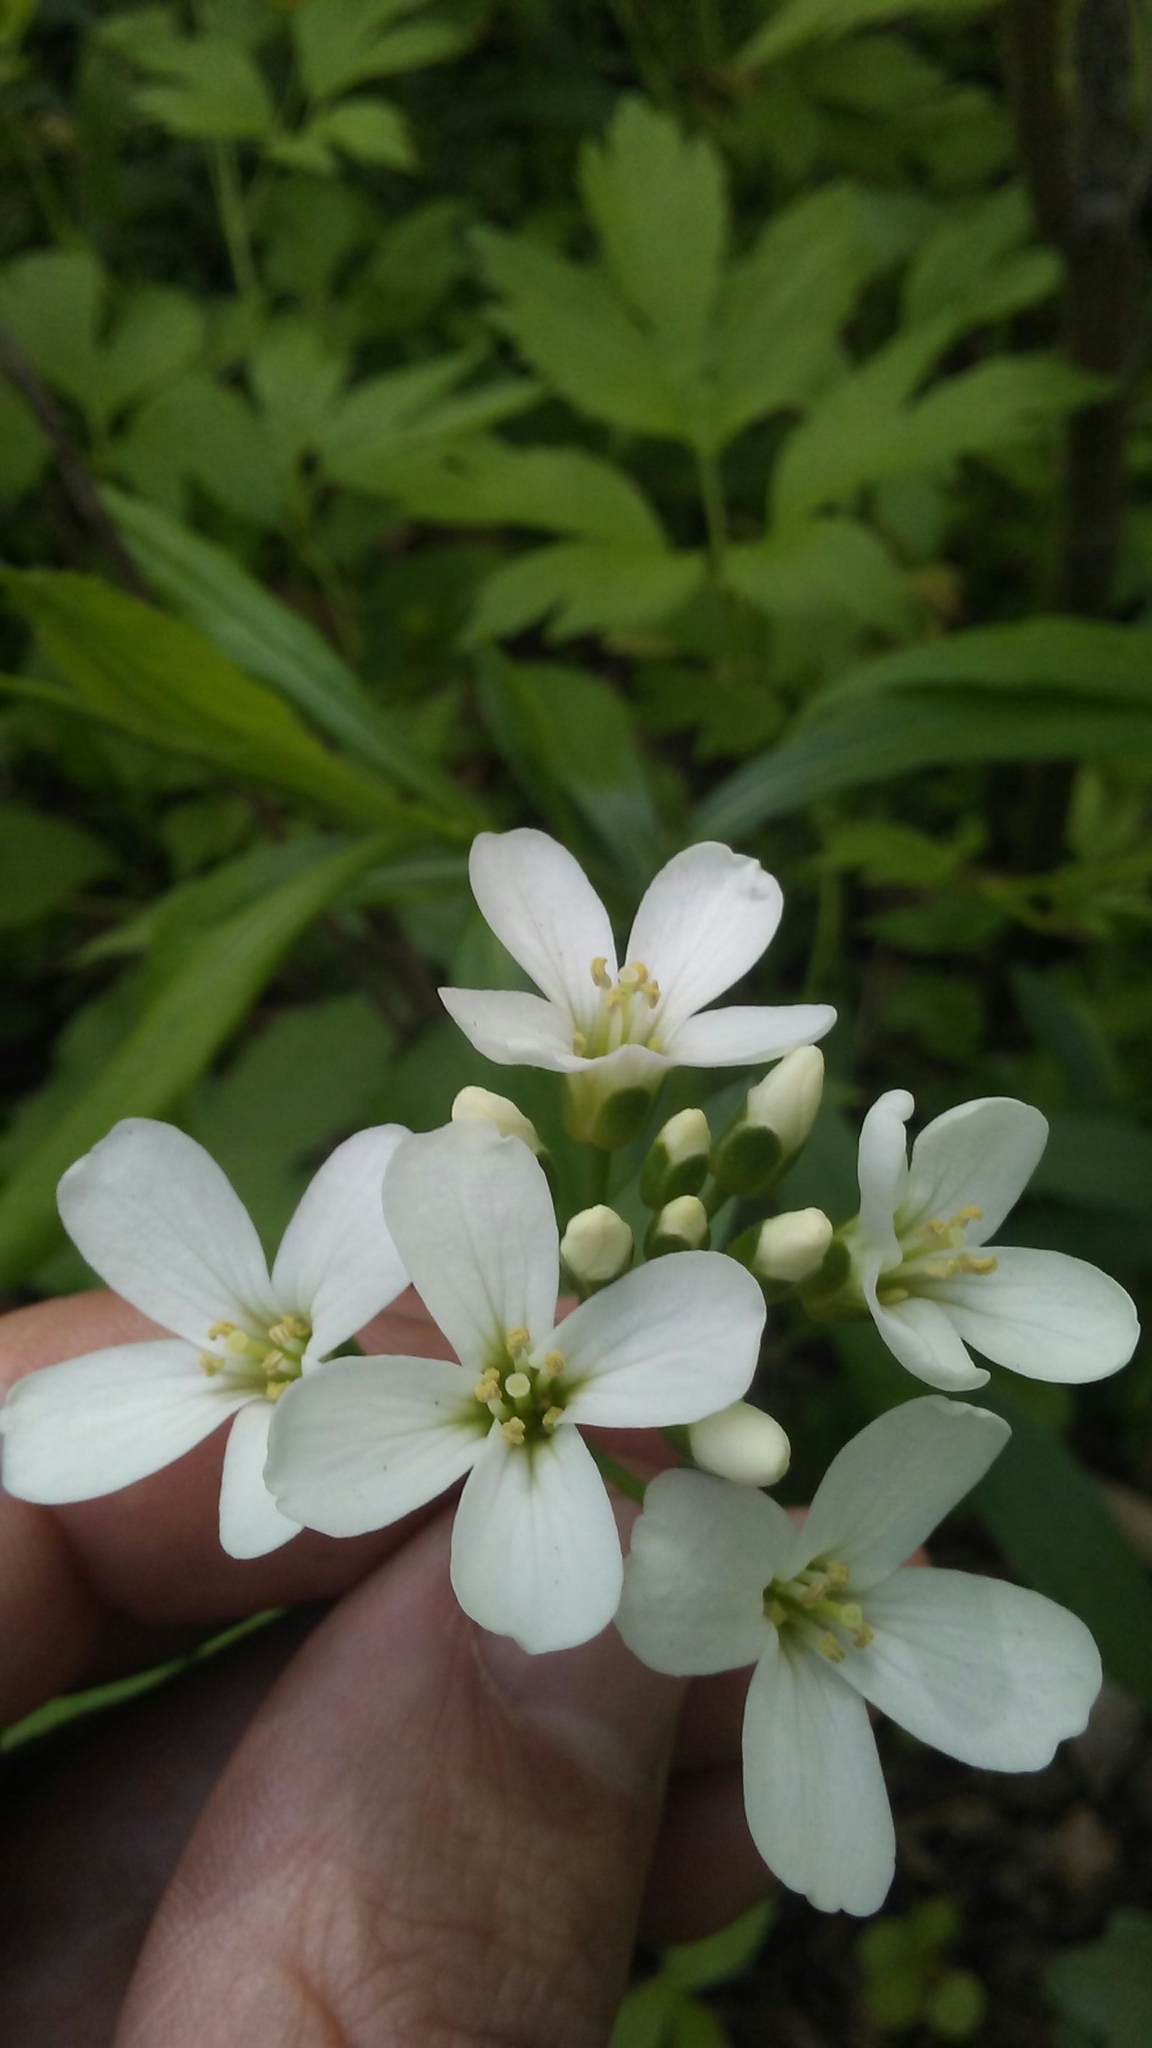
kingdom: Plantae
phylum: Tracheophyta
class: Magnoliopsida
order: Brassicales
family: Brassicaceae
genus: Cardamine
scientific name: Cardamine bulbosa
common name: Spring cress
